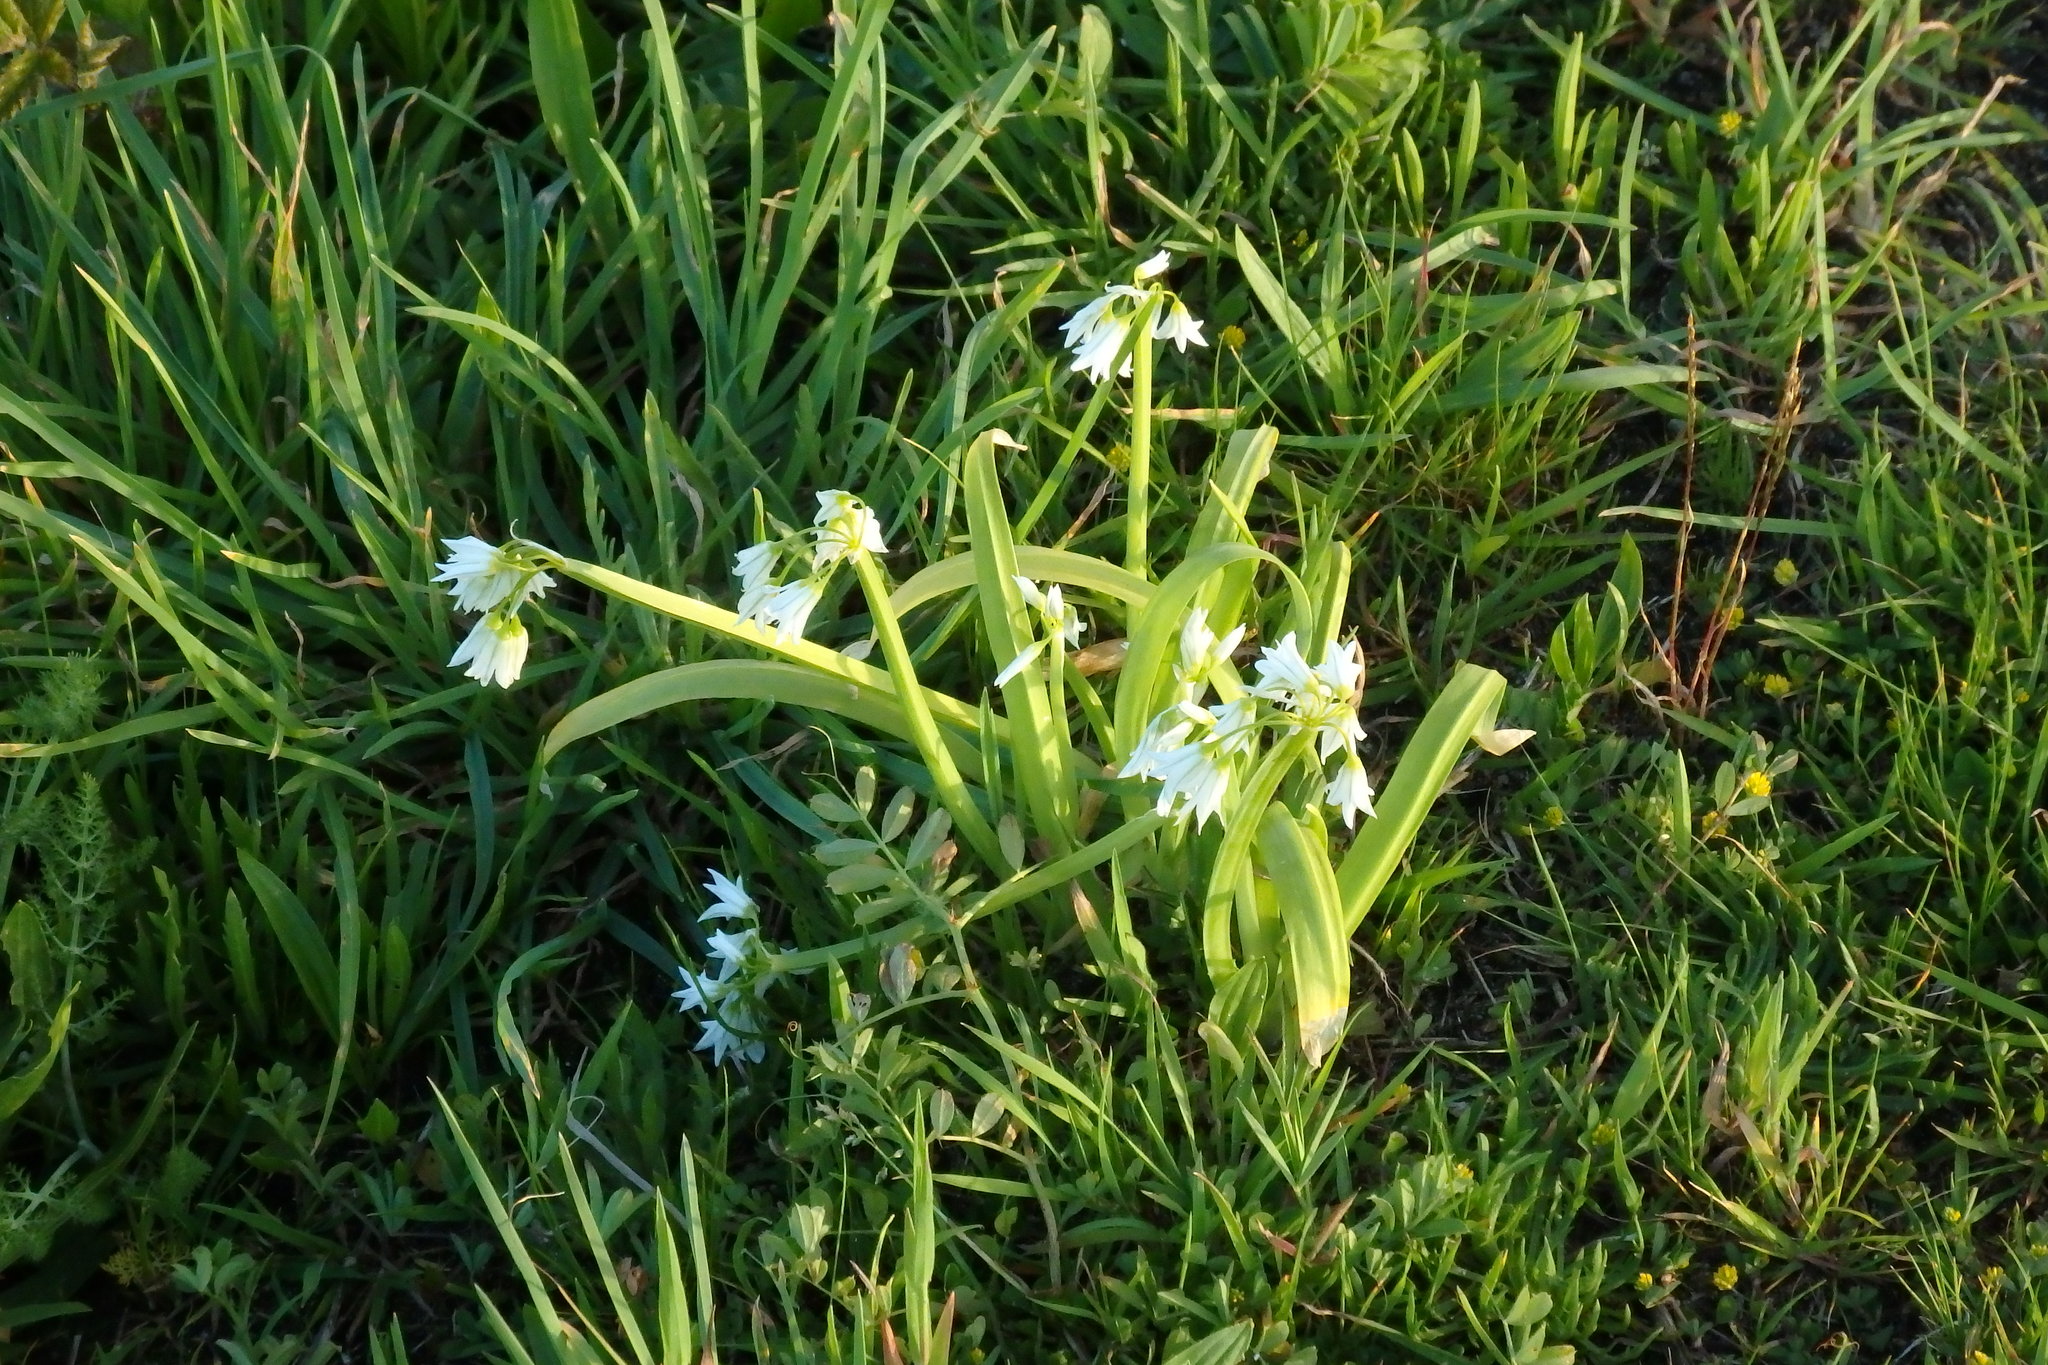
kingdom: Plantae
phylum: Tracheophyta
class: Liliopsida
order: Asparagales
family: Amaryllidaceae
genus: Allium
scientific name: Allium triquetrum
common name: Three-cornered garlic
